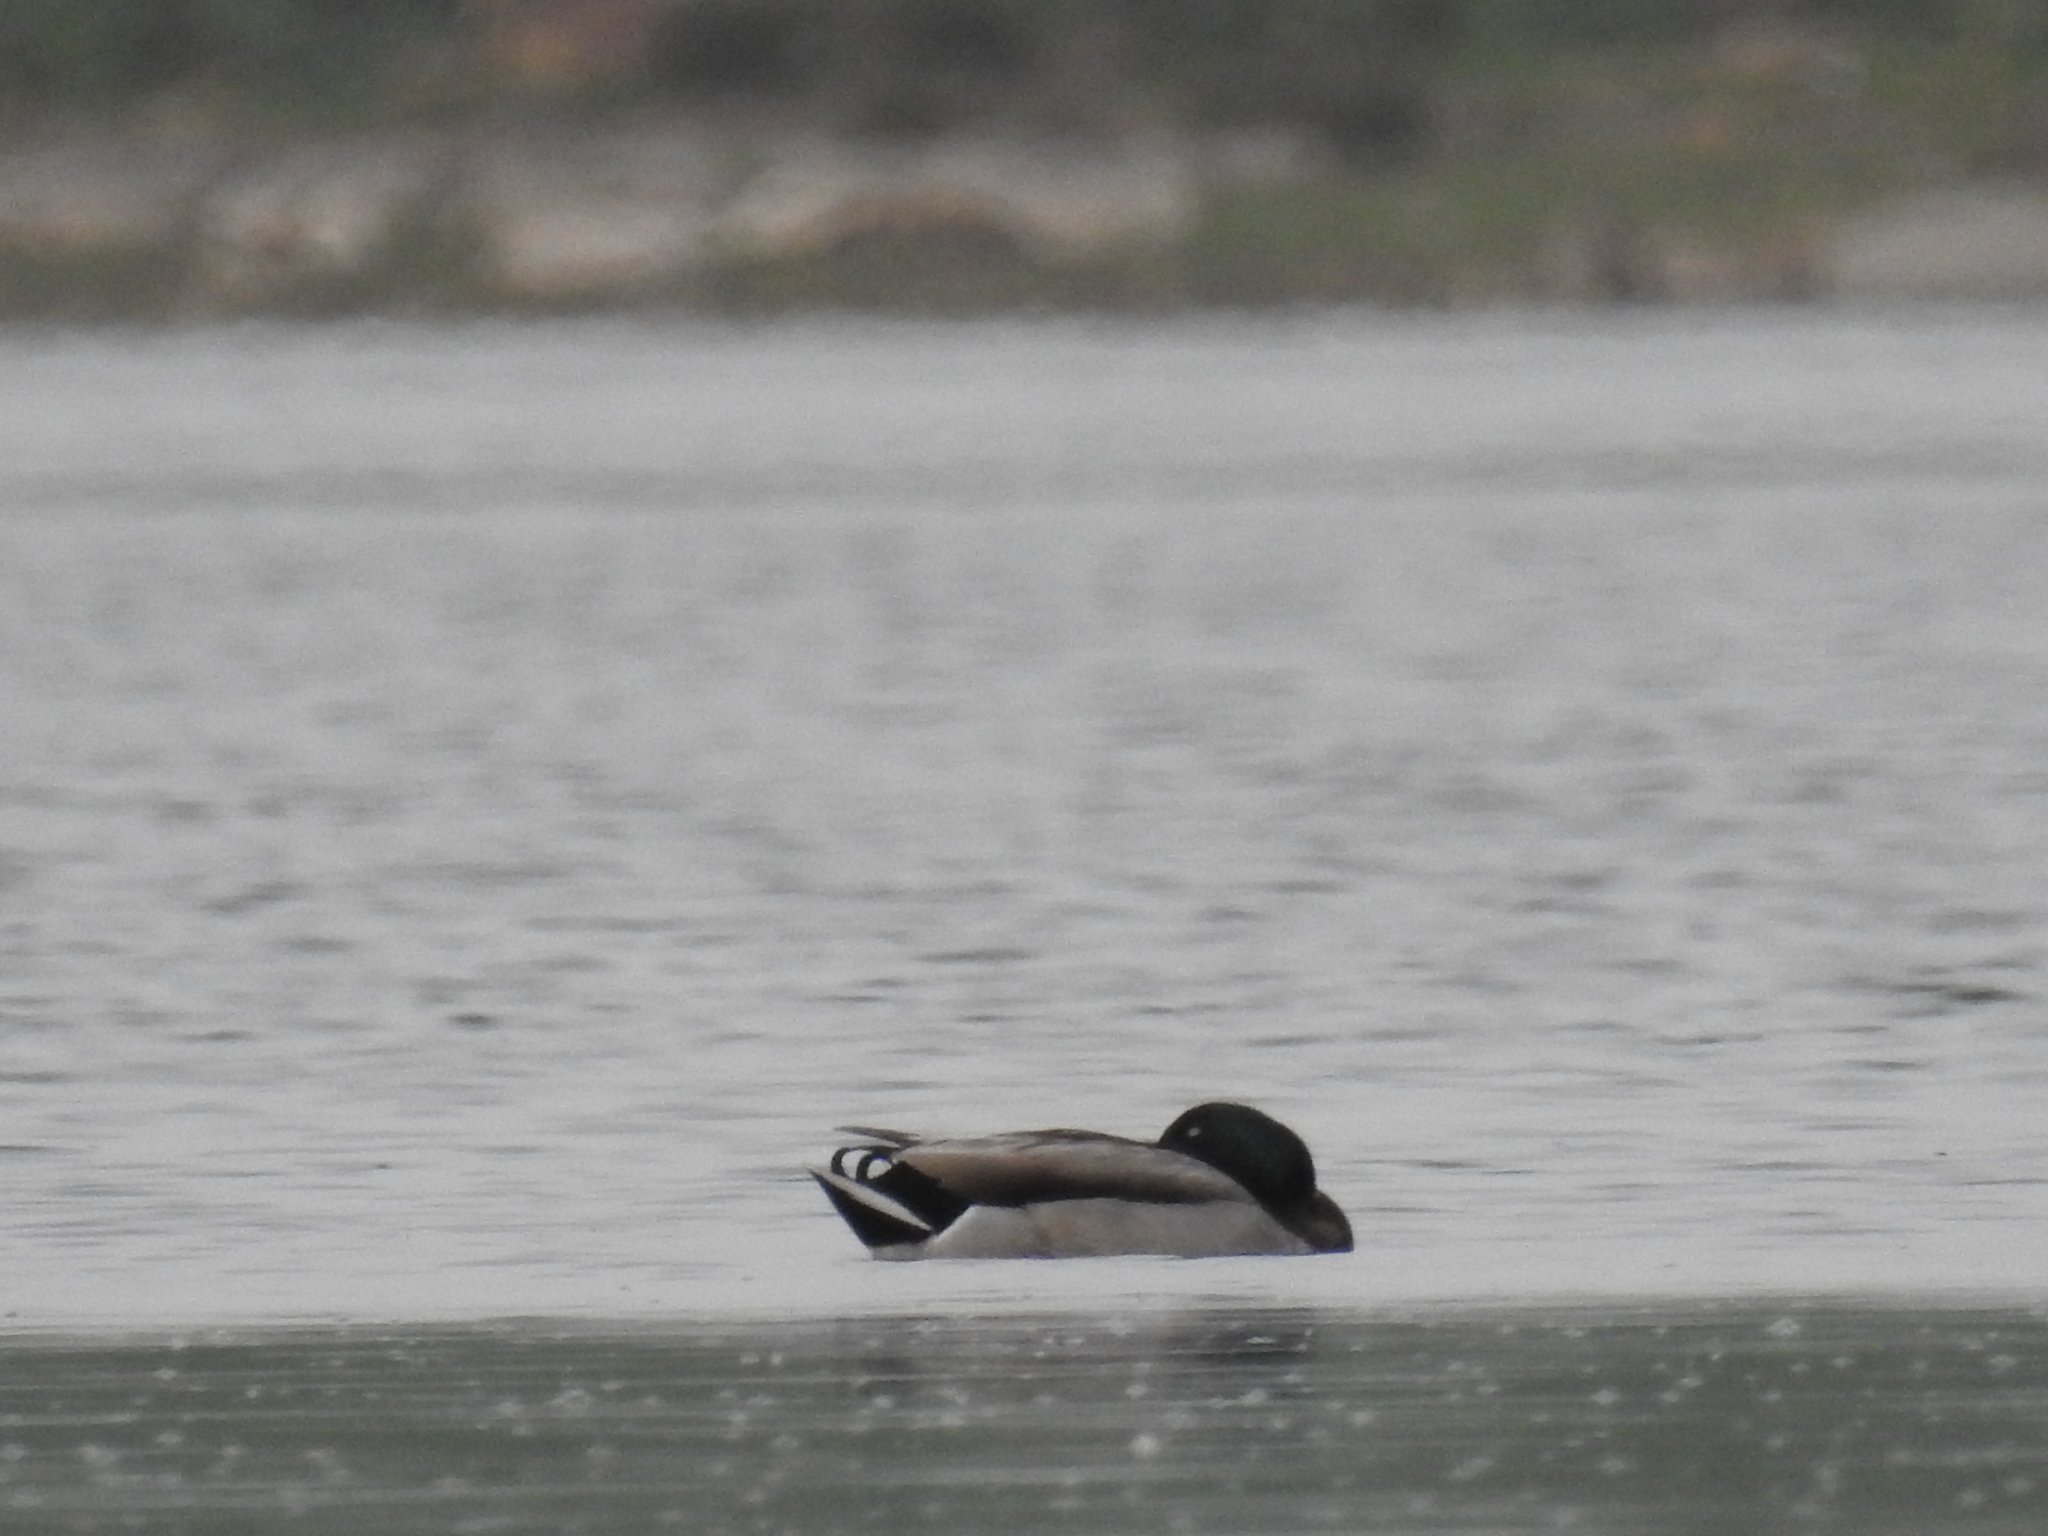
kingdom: Animalia
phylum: Chordata
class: Aves
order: Anseriformes
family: Anatidae
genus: Anas
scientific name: Anas platyrhynchos
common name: Mallard
